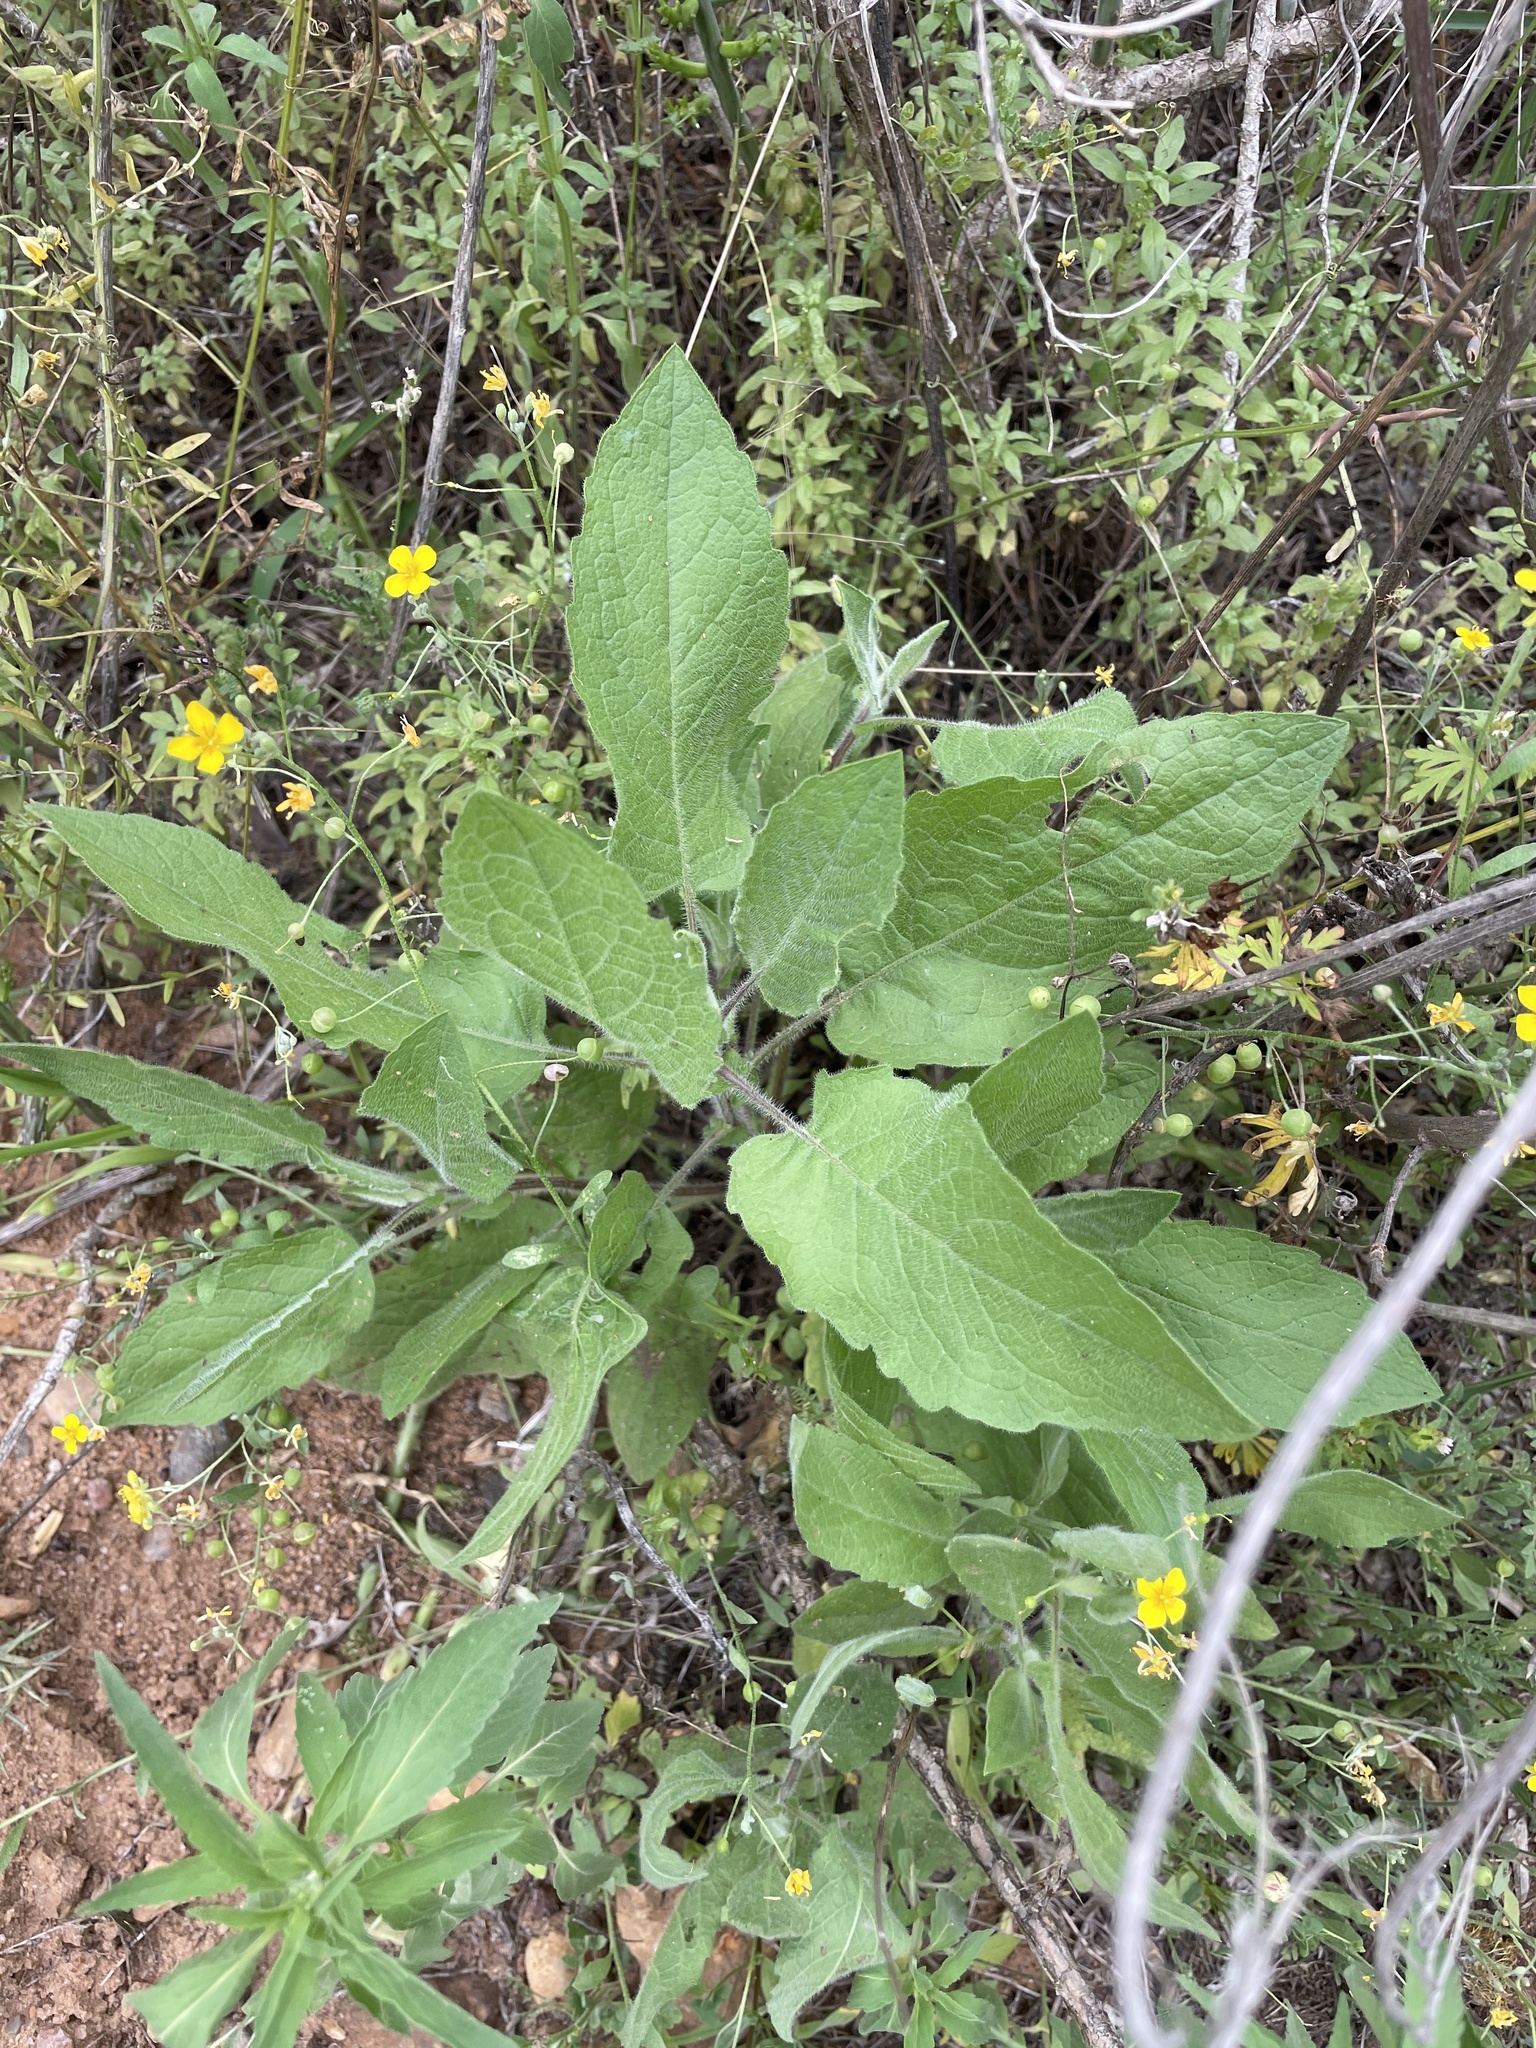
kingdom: Plantae
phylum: Tracheophyta
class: Magnoliopsida
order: Asterales
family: Asteraceae
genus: Heterotheca
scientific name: Heterotheca subaxillaris
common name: Camphorweed
